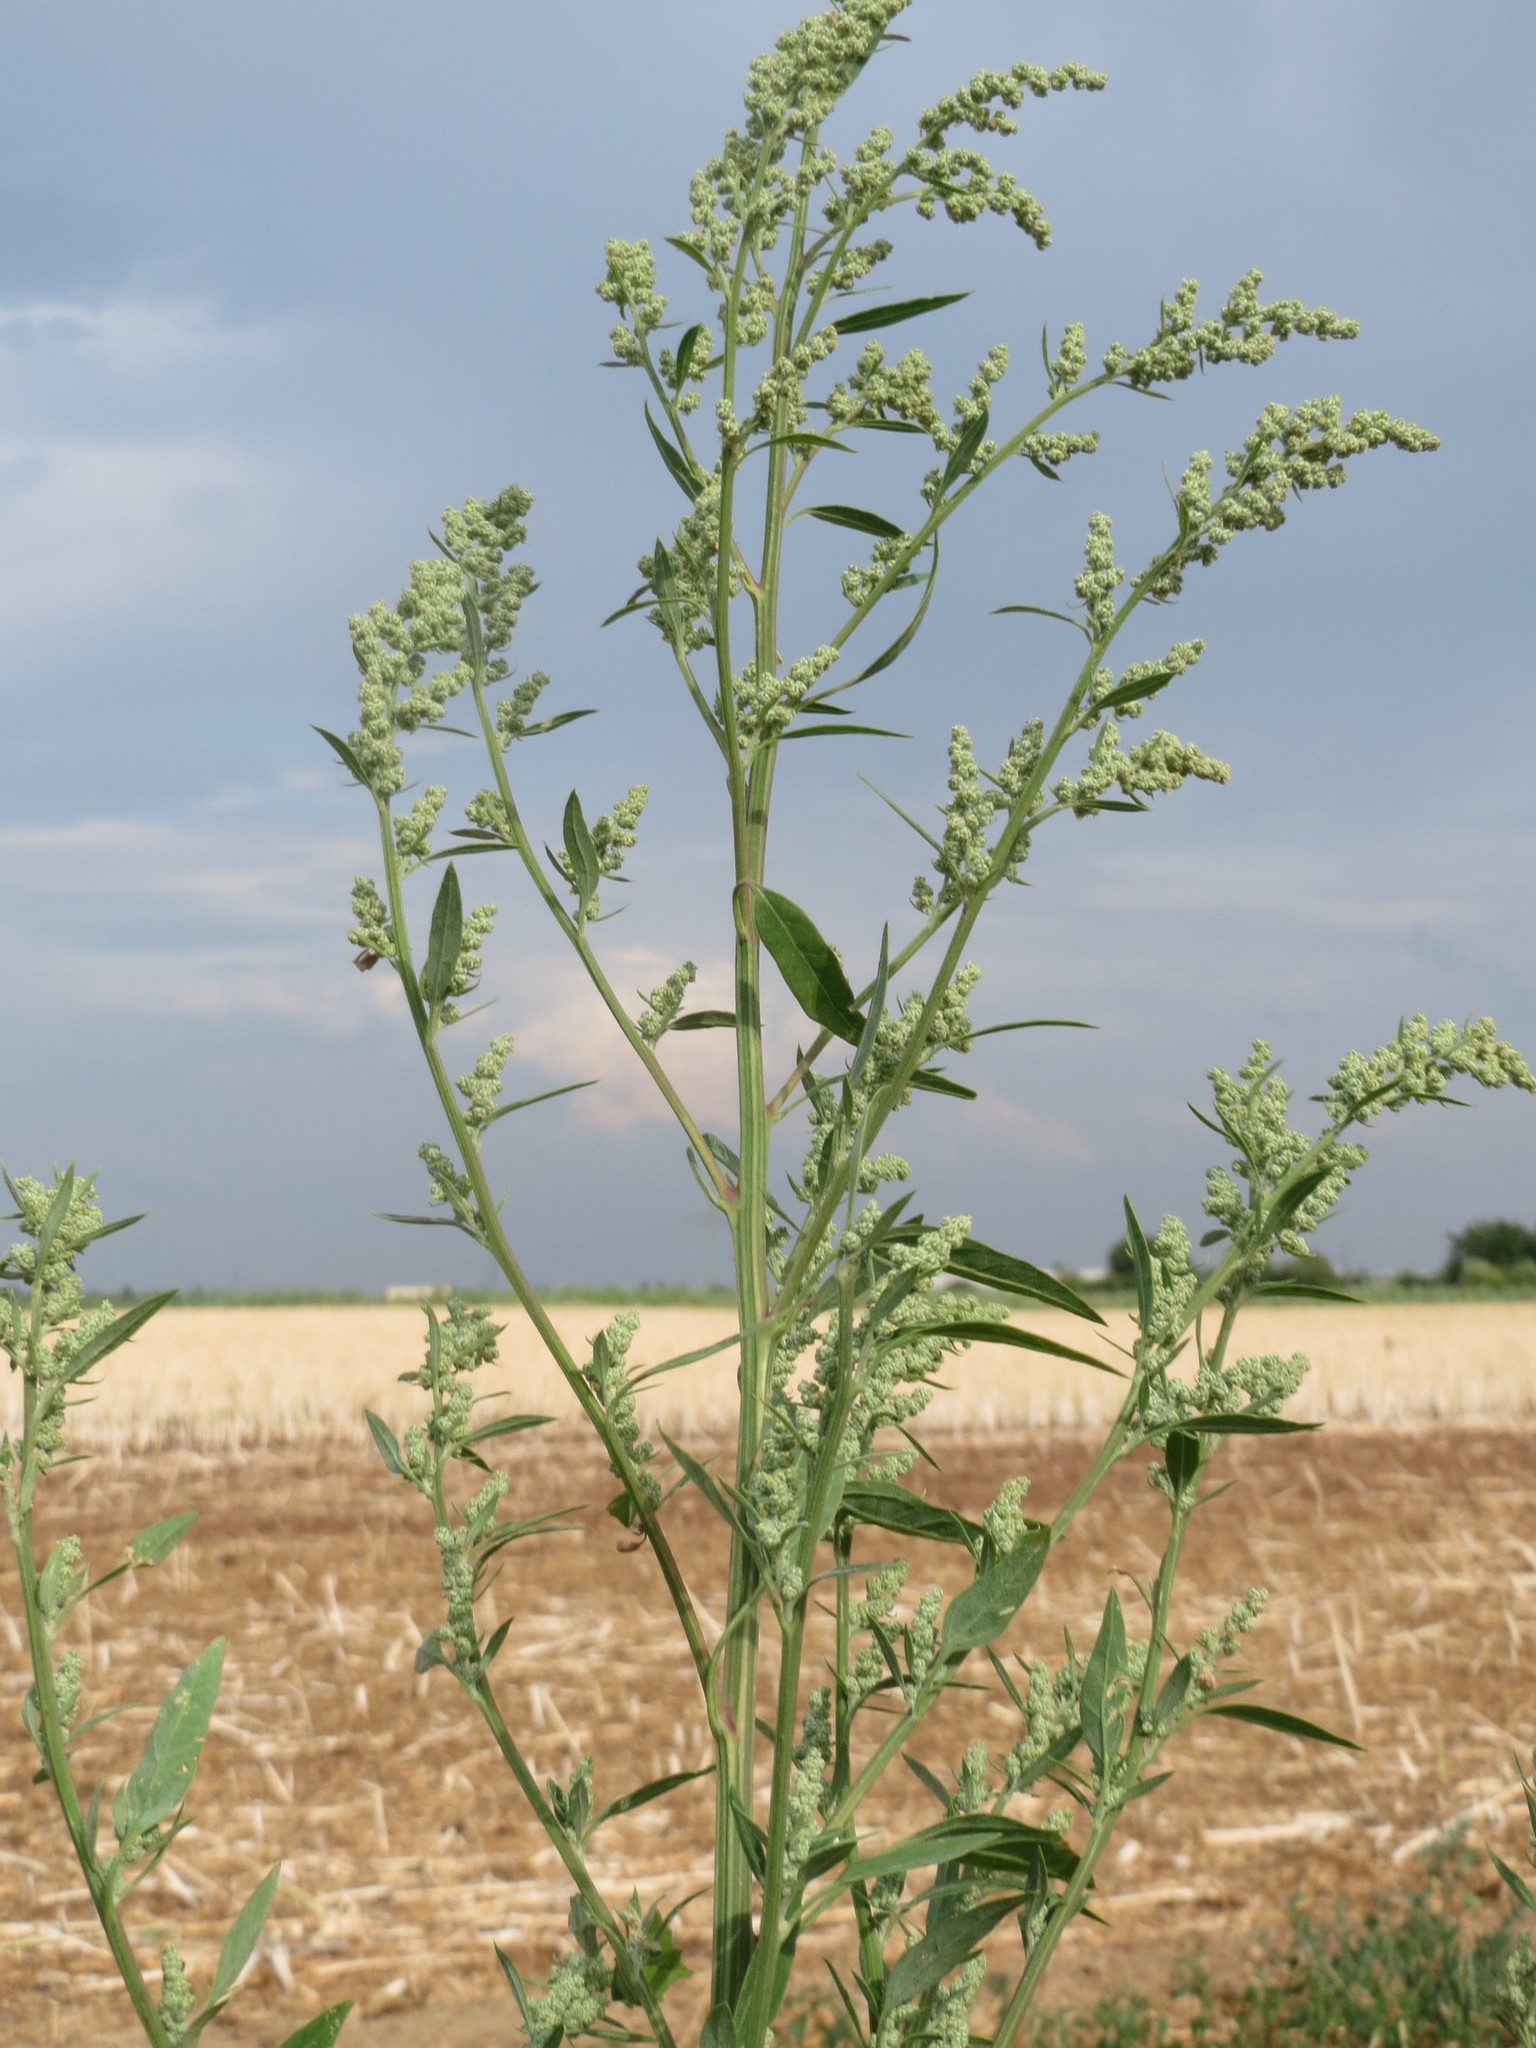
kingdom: Plantae
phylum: Tracheophyta
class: Magnoliopsida
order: Caryophyllales
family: Amaranthaceae
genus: Chenopodium
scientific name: Chenopodium album
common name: Fat-hen
